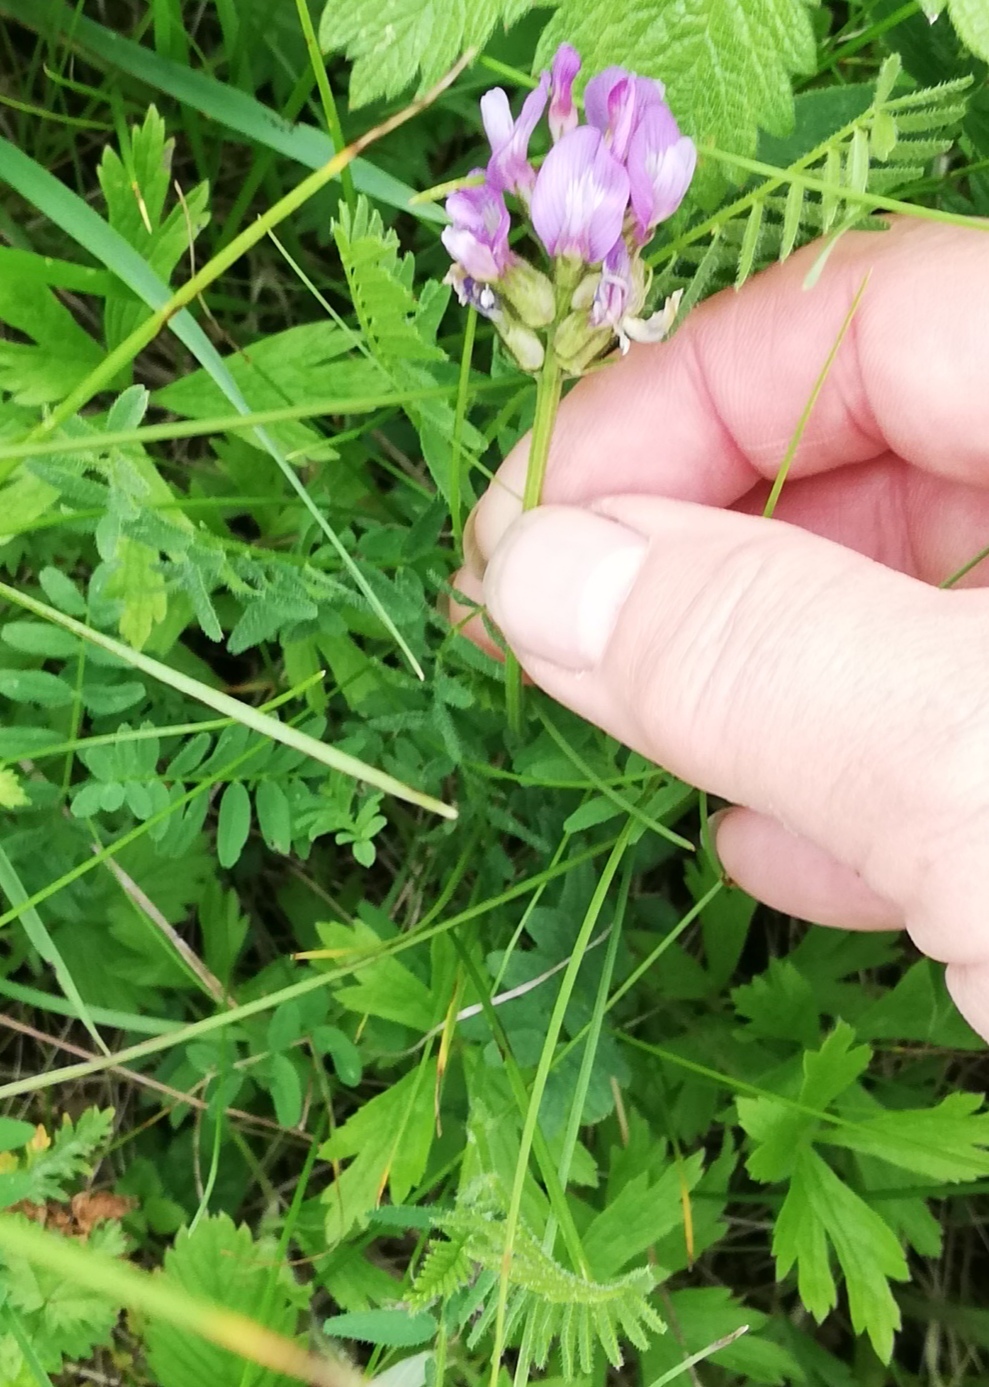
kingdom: Plantae
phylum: Tracheophyta
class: Magnoliopsida
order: Fabales
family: Fabaceae
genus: Astragalus
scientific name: Astragalus danicus
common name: Purple milk-vetch
